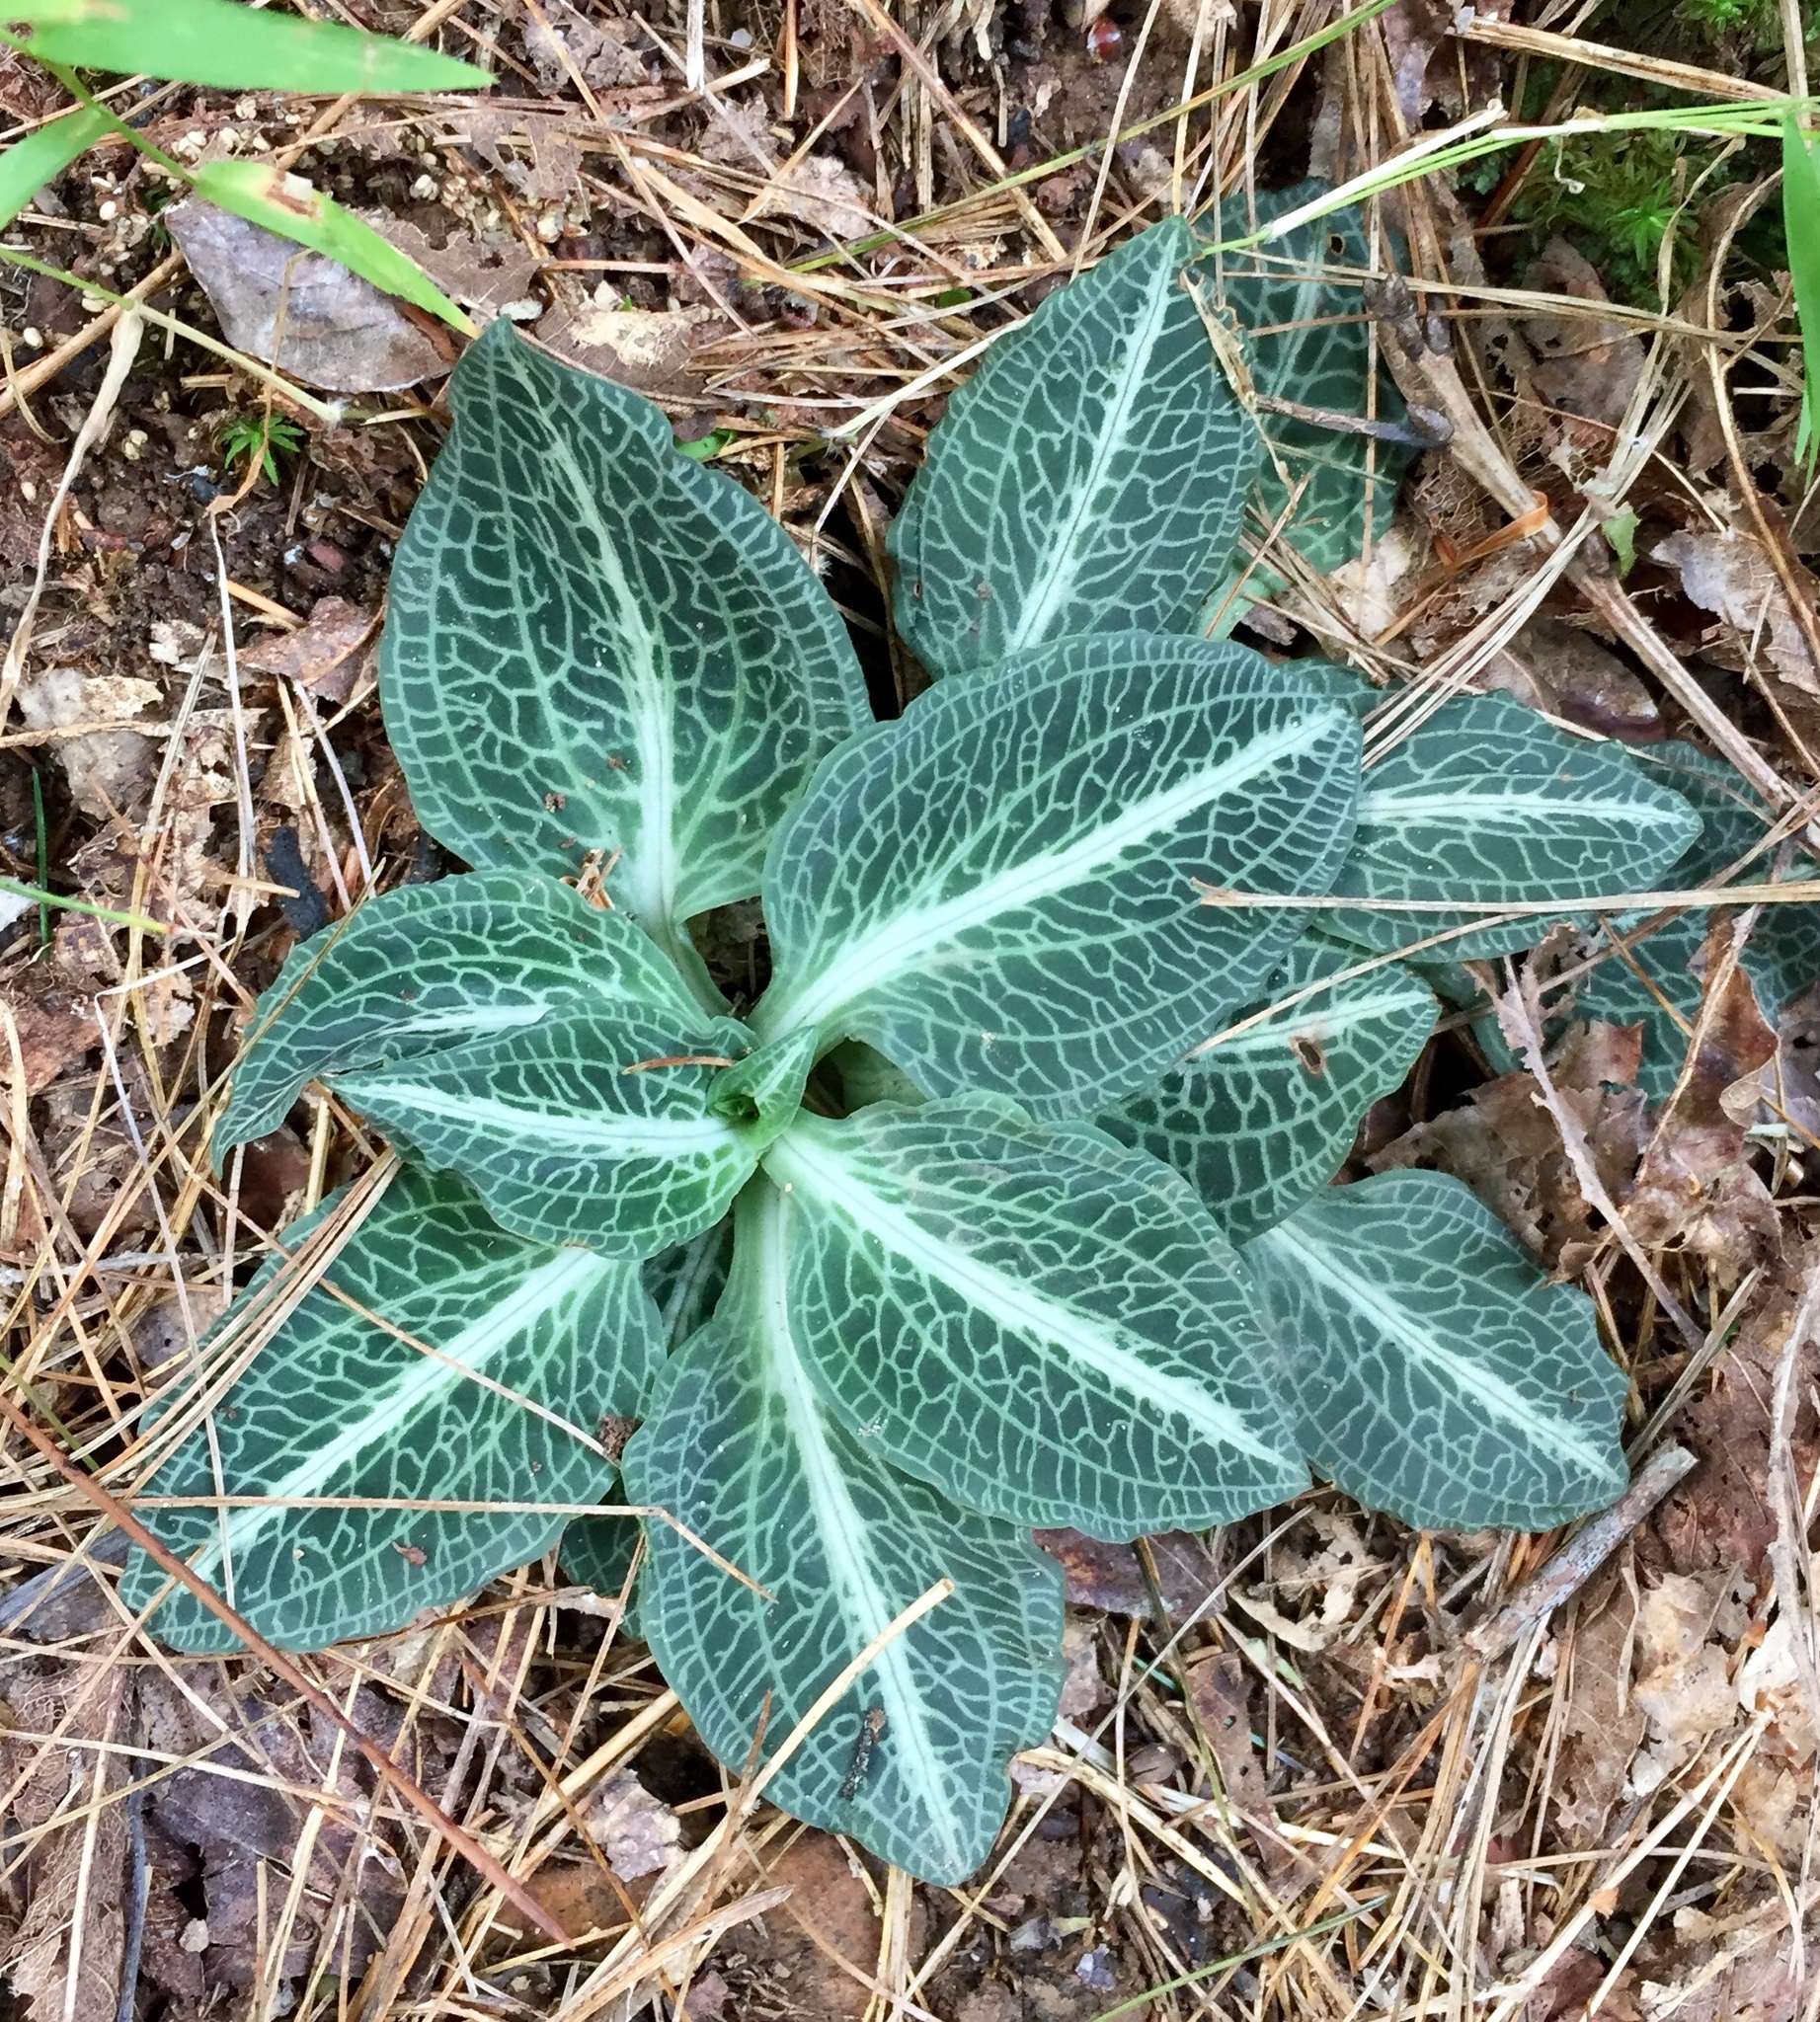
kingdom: Plantae
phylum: Tracheophyta
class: Liliopsida
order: Asparagales
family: Orchidaceae
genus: Goodyera
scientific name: Goodyera pubescens
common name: Downy rattlesnake-plantain
